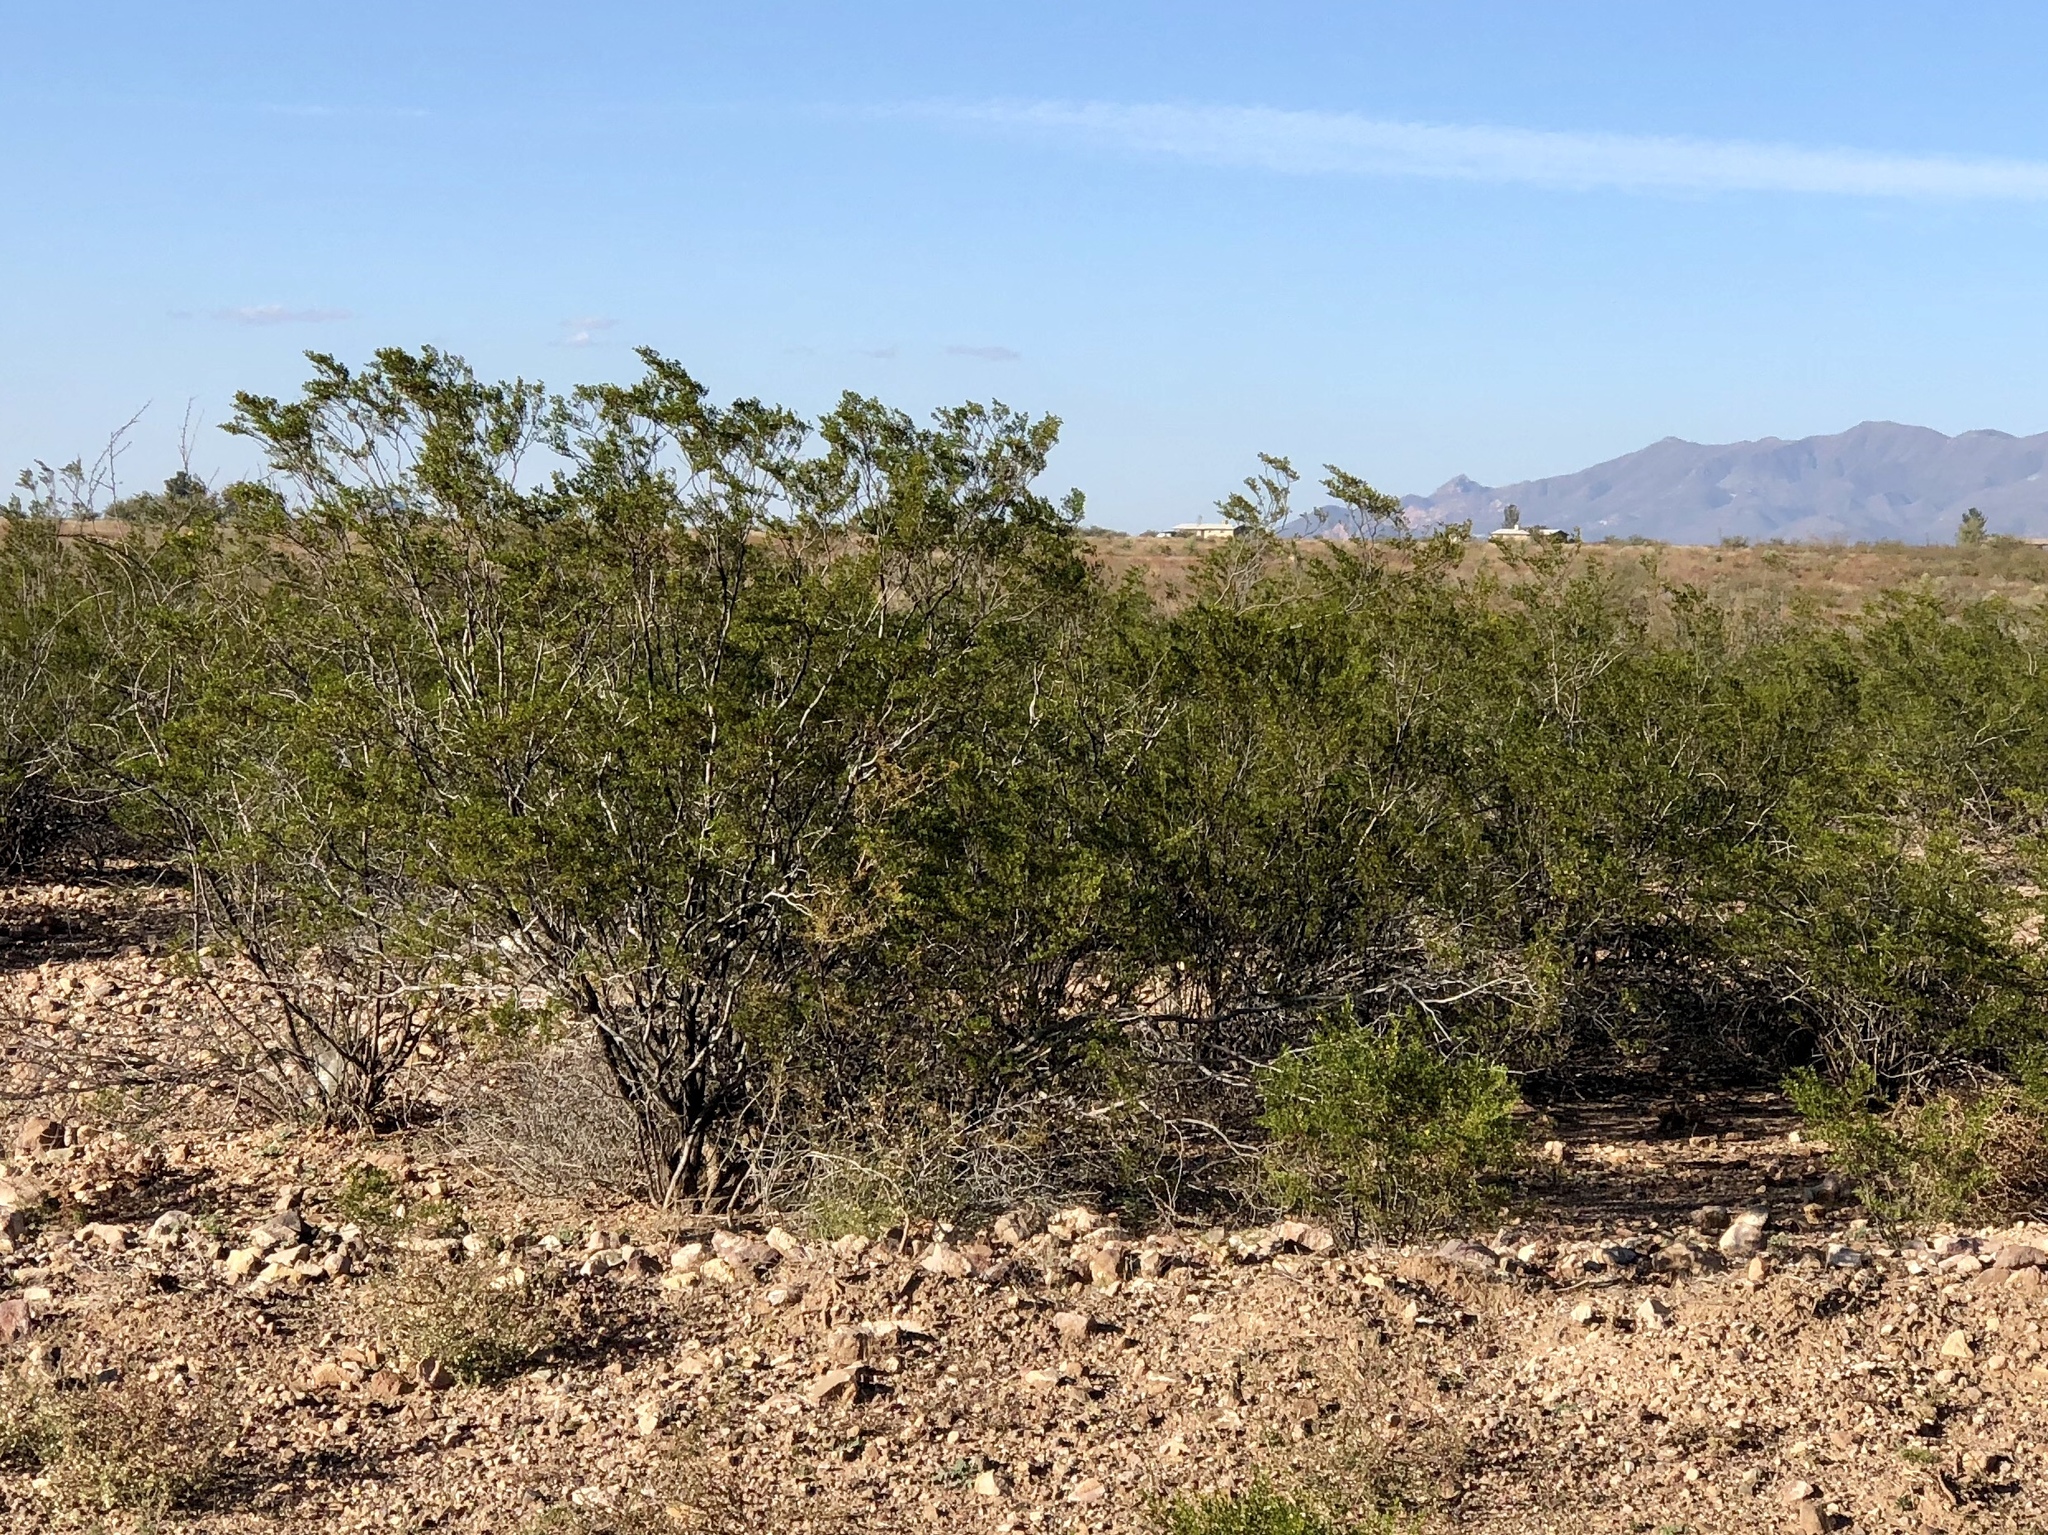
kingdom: Plantae
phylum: Tracheophyta
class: Magnoliopsida
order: Zygophyllales
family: Zygophyllaceae
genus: Larrea
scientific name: Larrea tridentata
